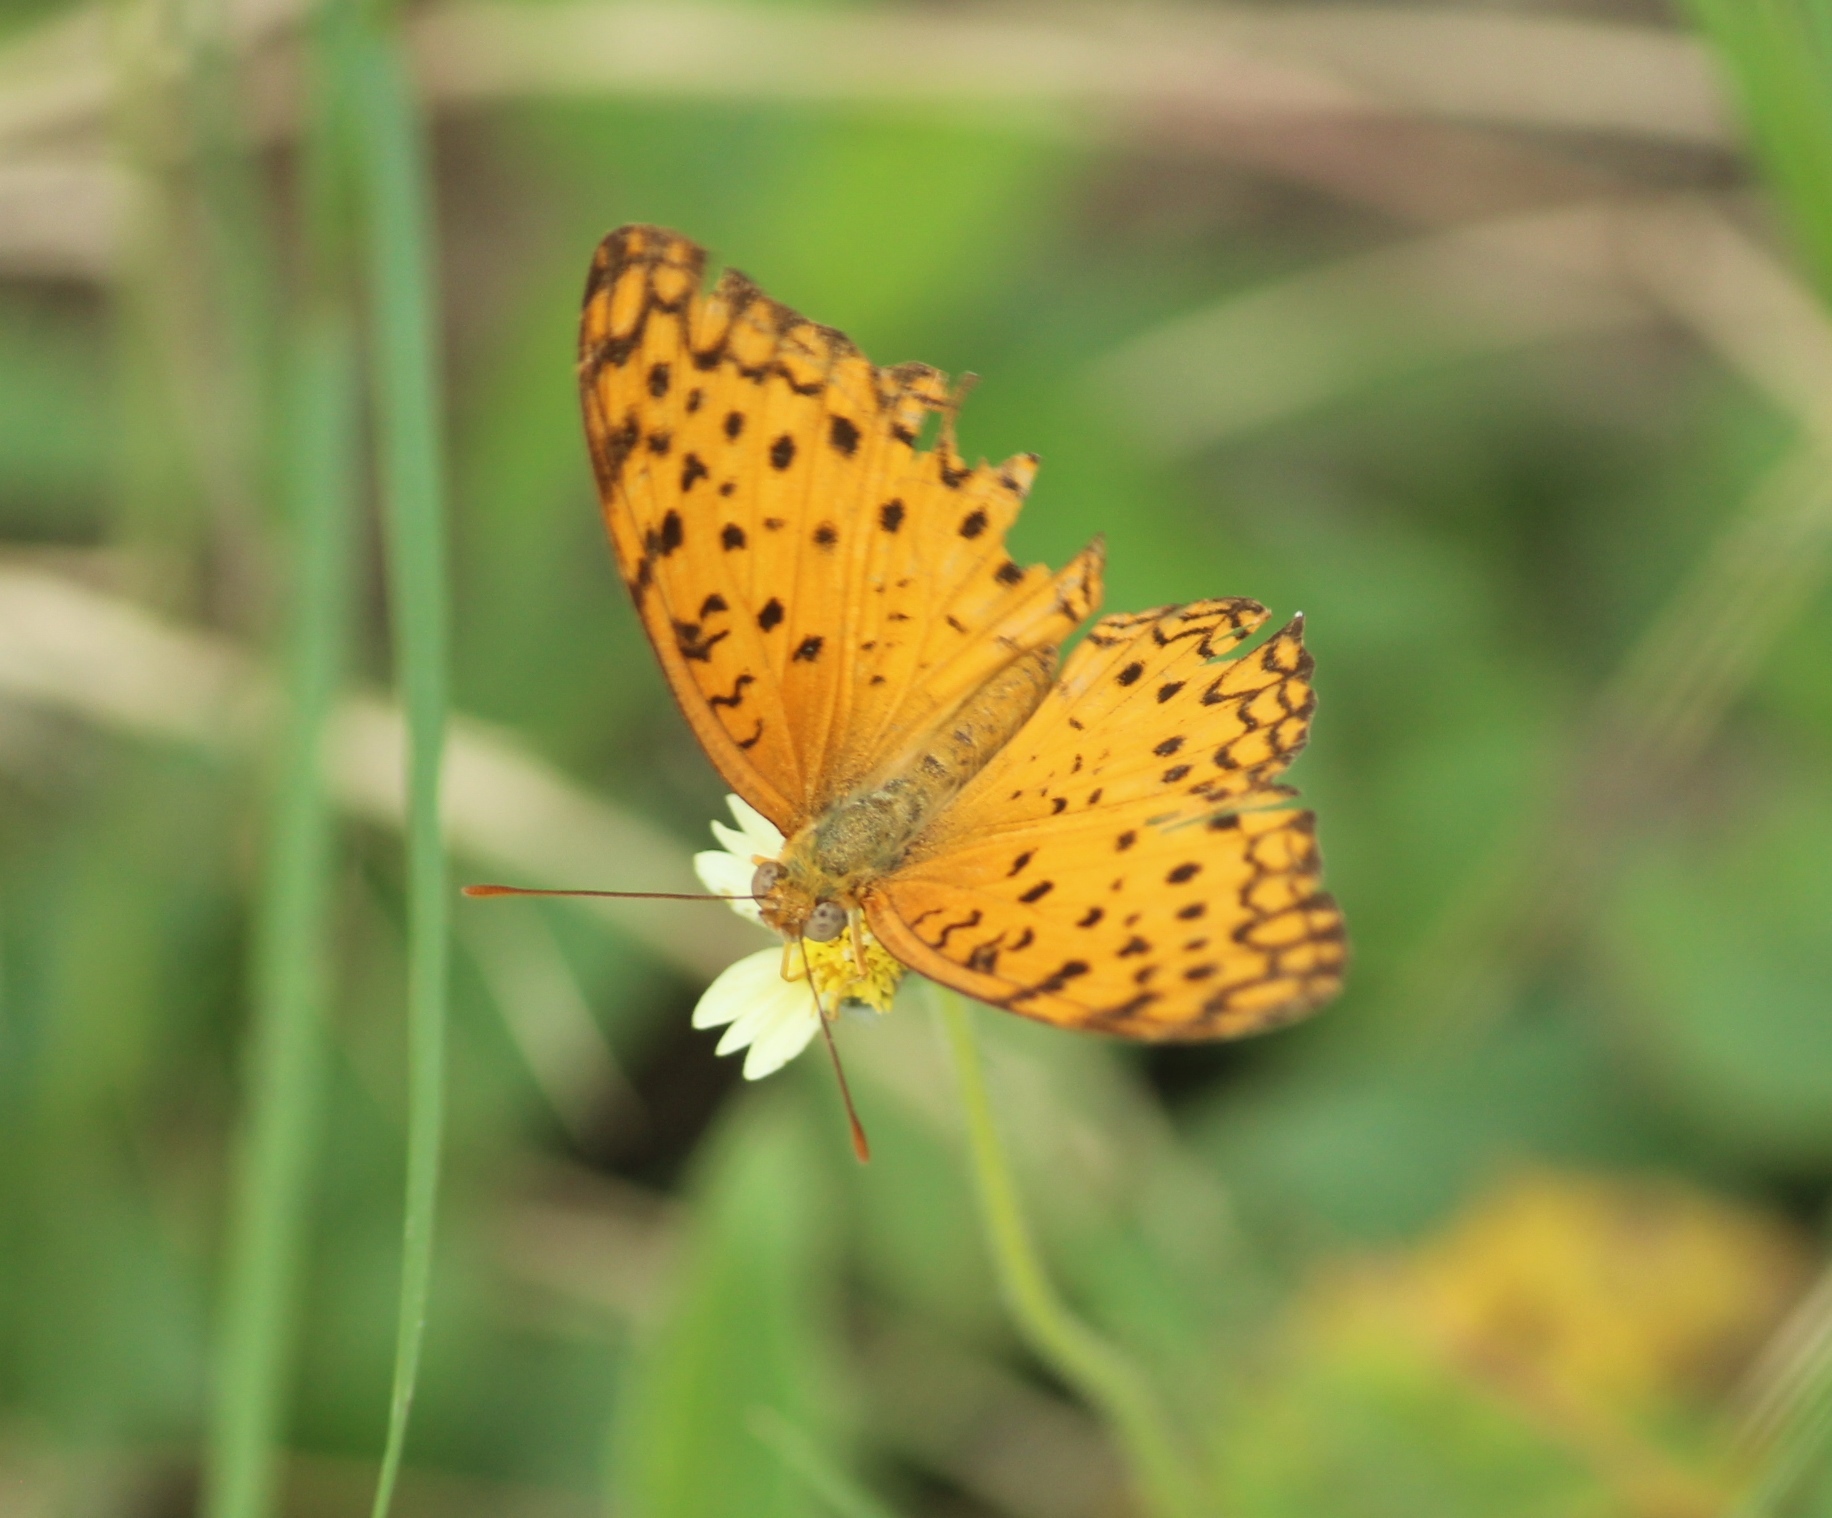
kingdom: Animalia
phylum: Arthropoda
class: Insecta
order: Lepidoptera
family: Nymphalidae
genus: Phalanta
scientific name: Phalanta phalantha
